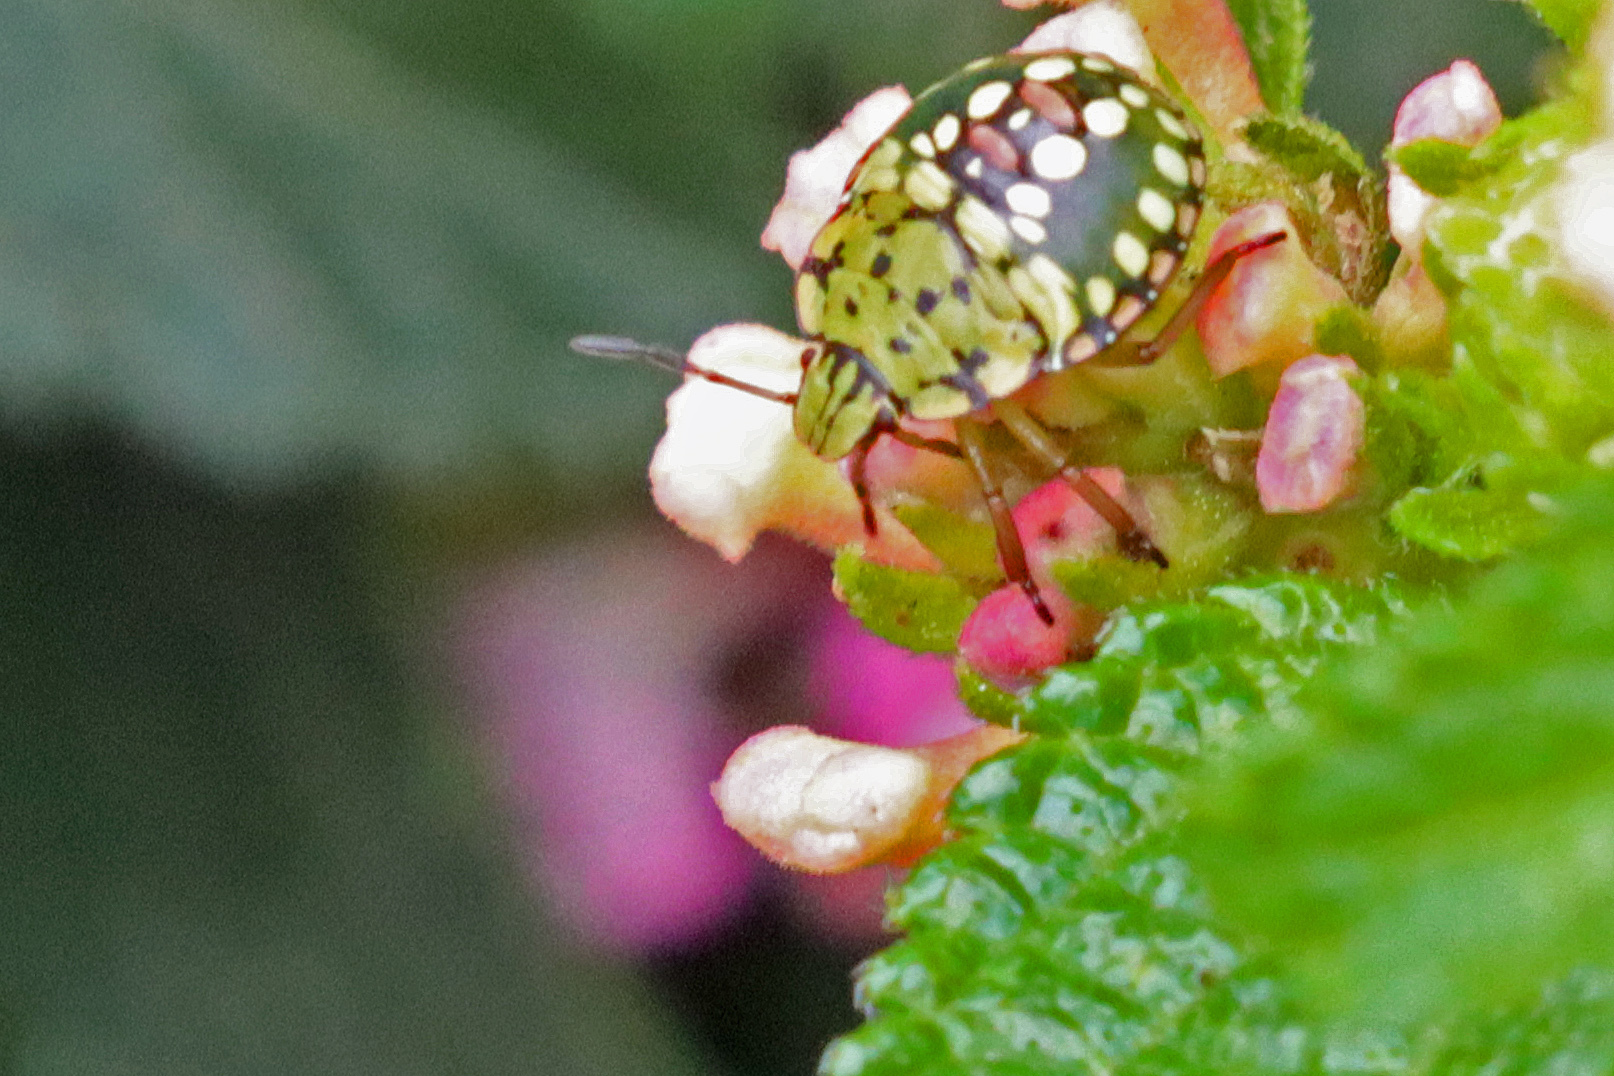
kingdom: Animalia
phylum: Arthropoda
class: Insecta
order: Hemiptera
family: Pentatomidae
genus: Nezara
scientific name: Nezara viridula
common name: Southern green stink bug
